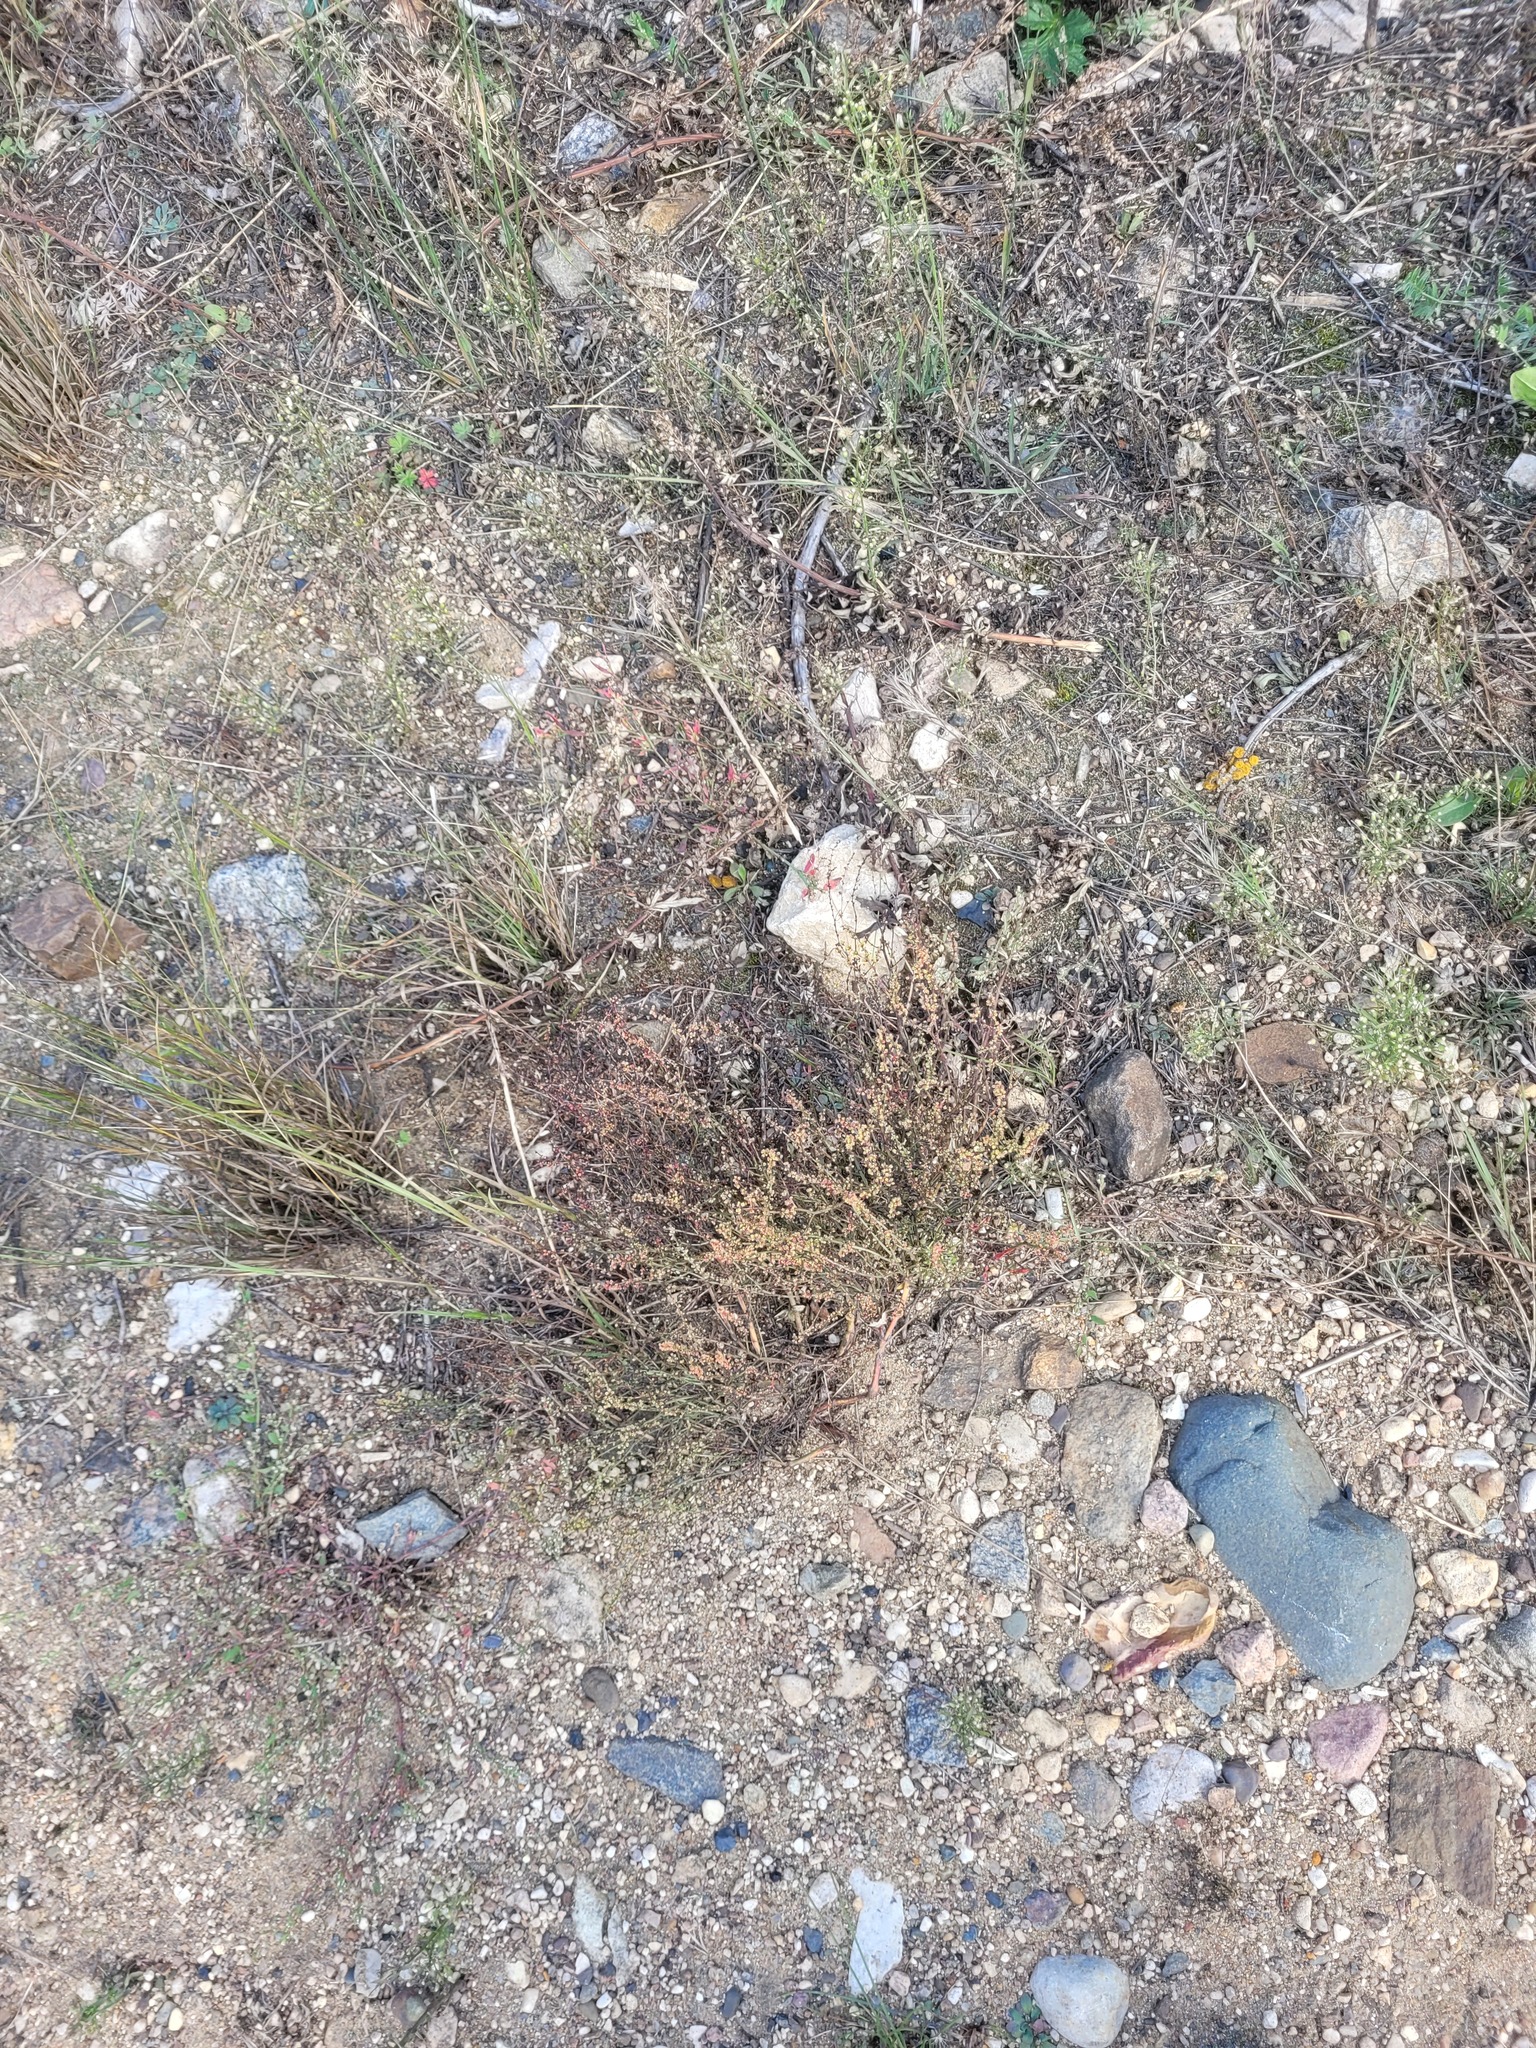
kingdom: Plantae
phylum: Tracheophyta
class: Magnoliopsida
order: Asterales
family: Asteraceae
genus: Artemisia
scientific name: Artemisia campestris
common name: Field wormwood
